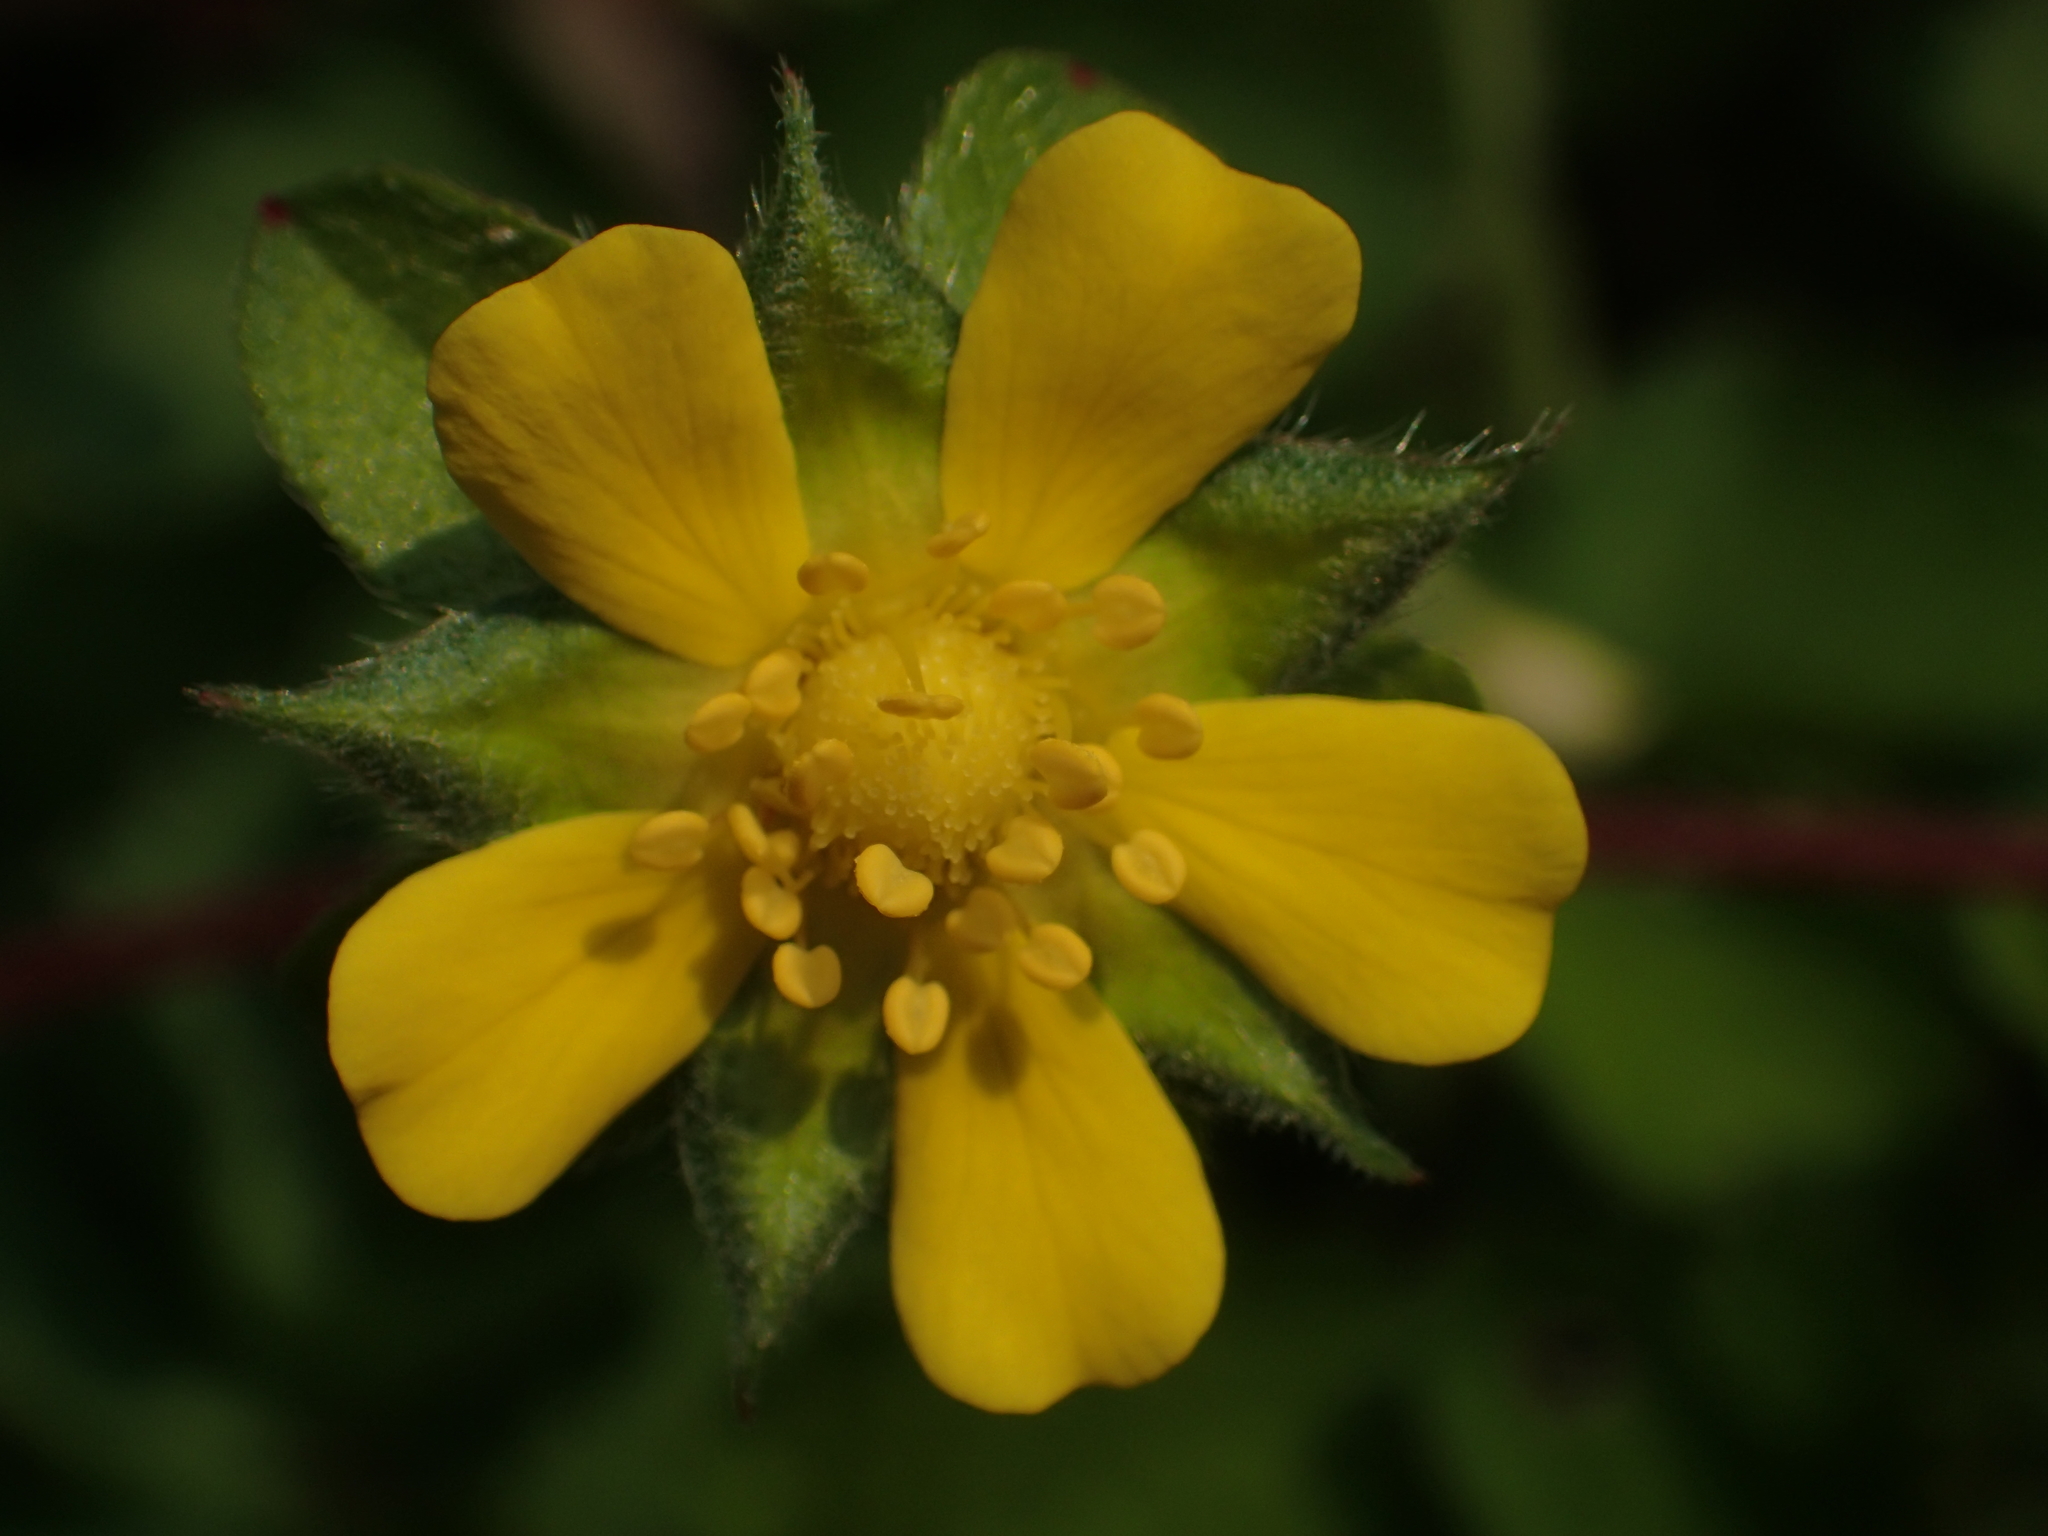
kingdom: Plantae
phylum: Tracheophyta
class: Magnoliopsida
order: Rosales
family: Rosaceae
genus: Potentilla
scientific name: Potentilla indica
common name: Yellow-flowered strawberry
